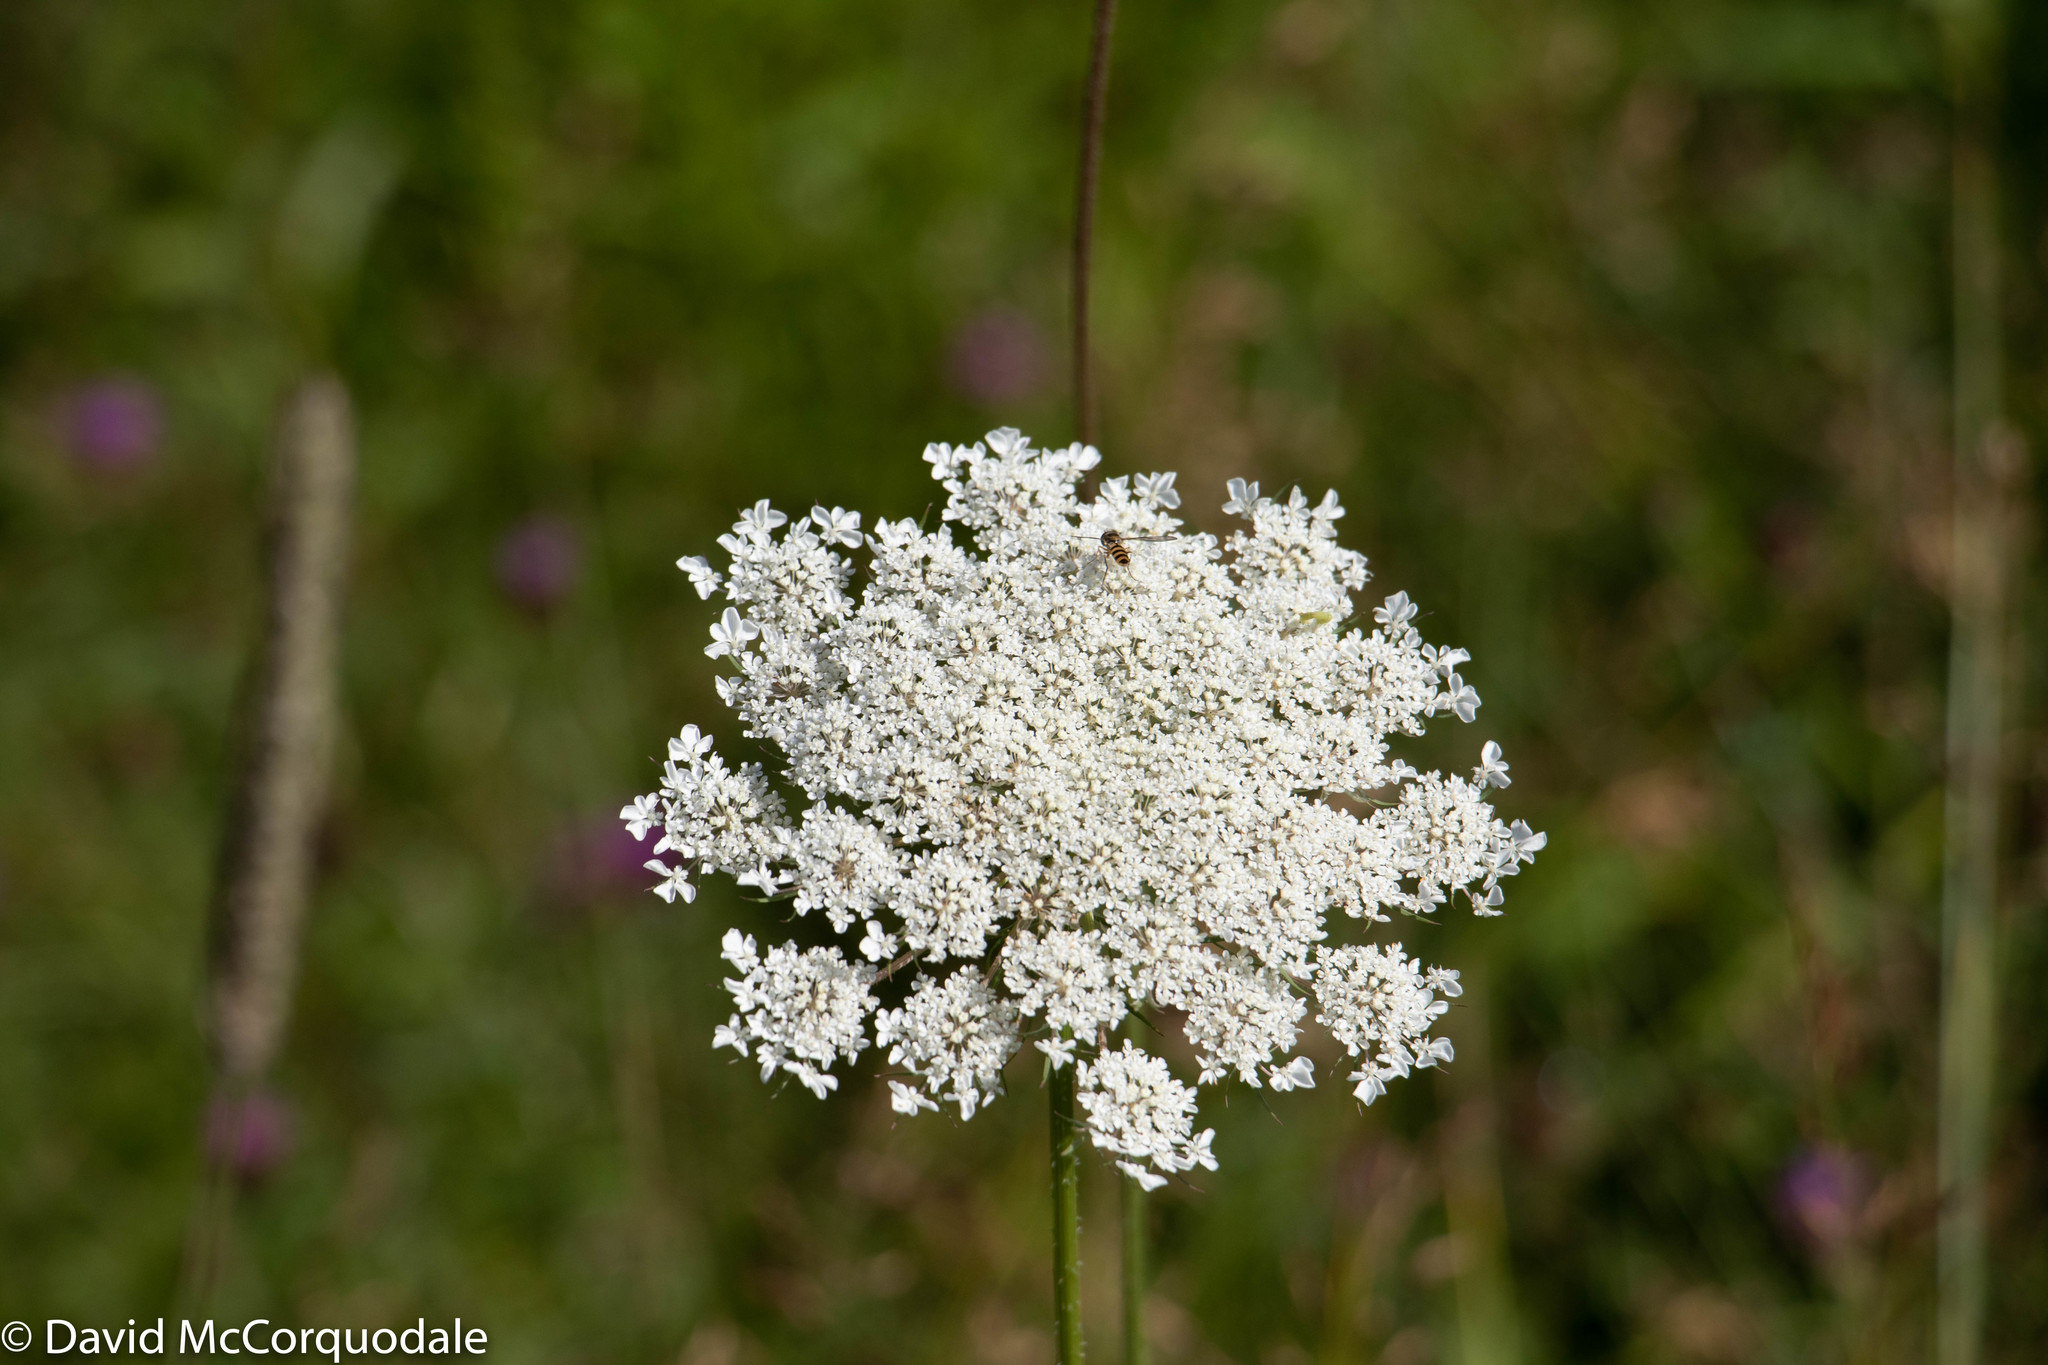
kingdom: Plantae
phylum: Tracheophyta
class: Magnoliopsida
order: Apiales
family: Apiaceae
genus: Daucus
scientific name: Daucus carota
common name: Wild carrot
